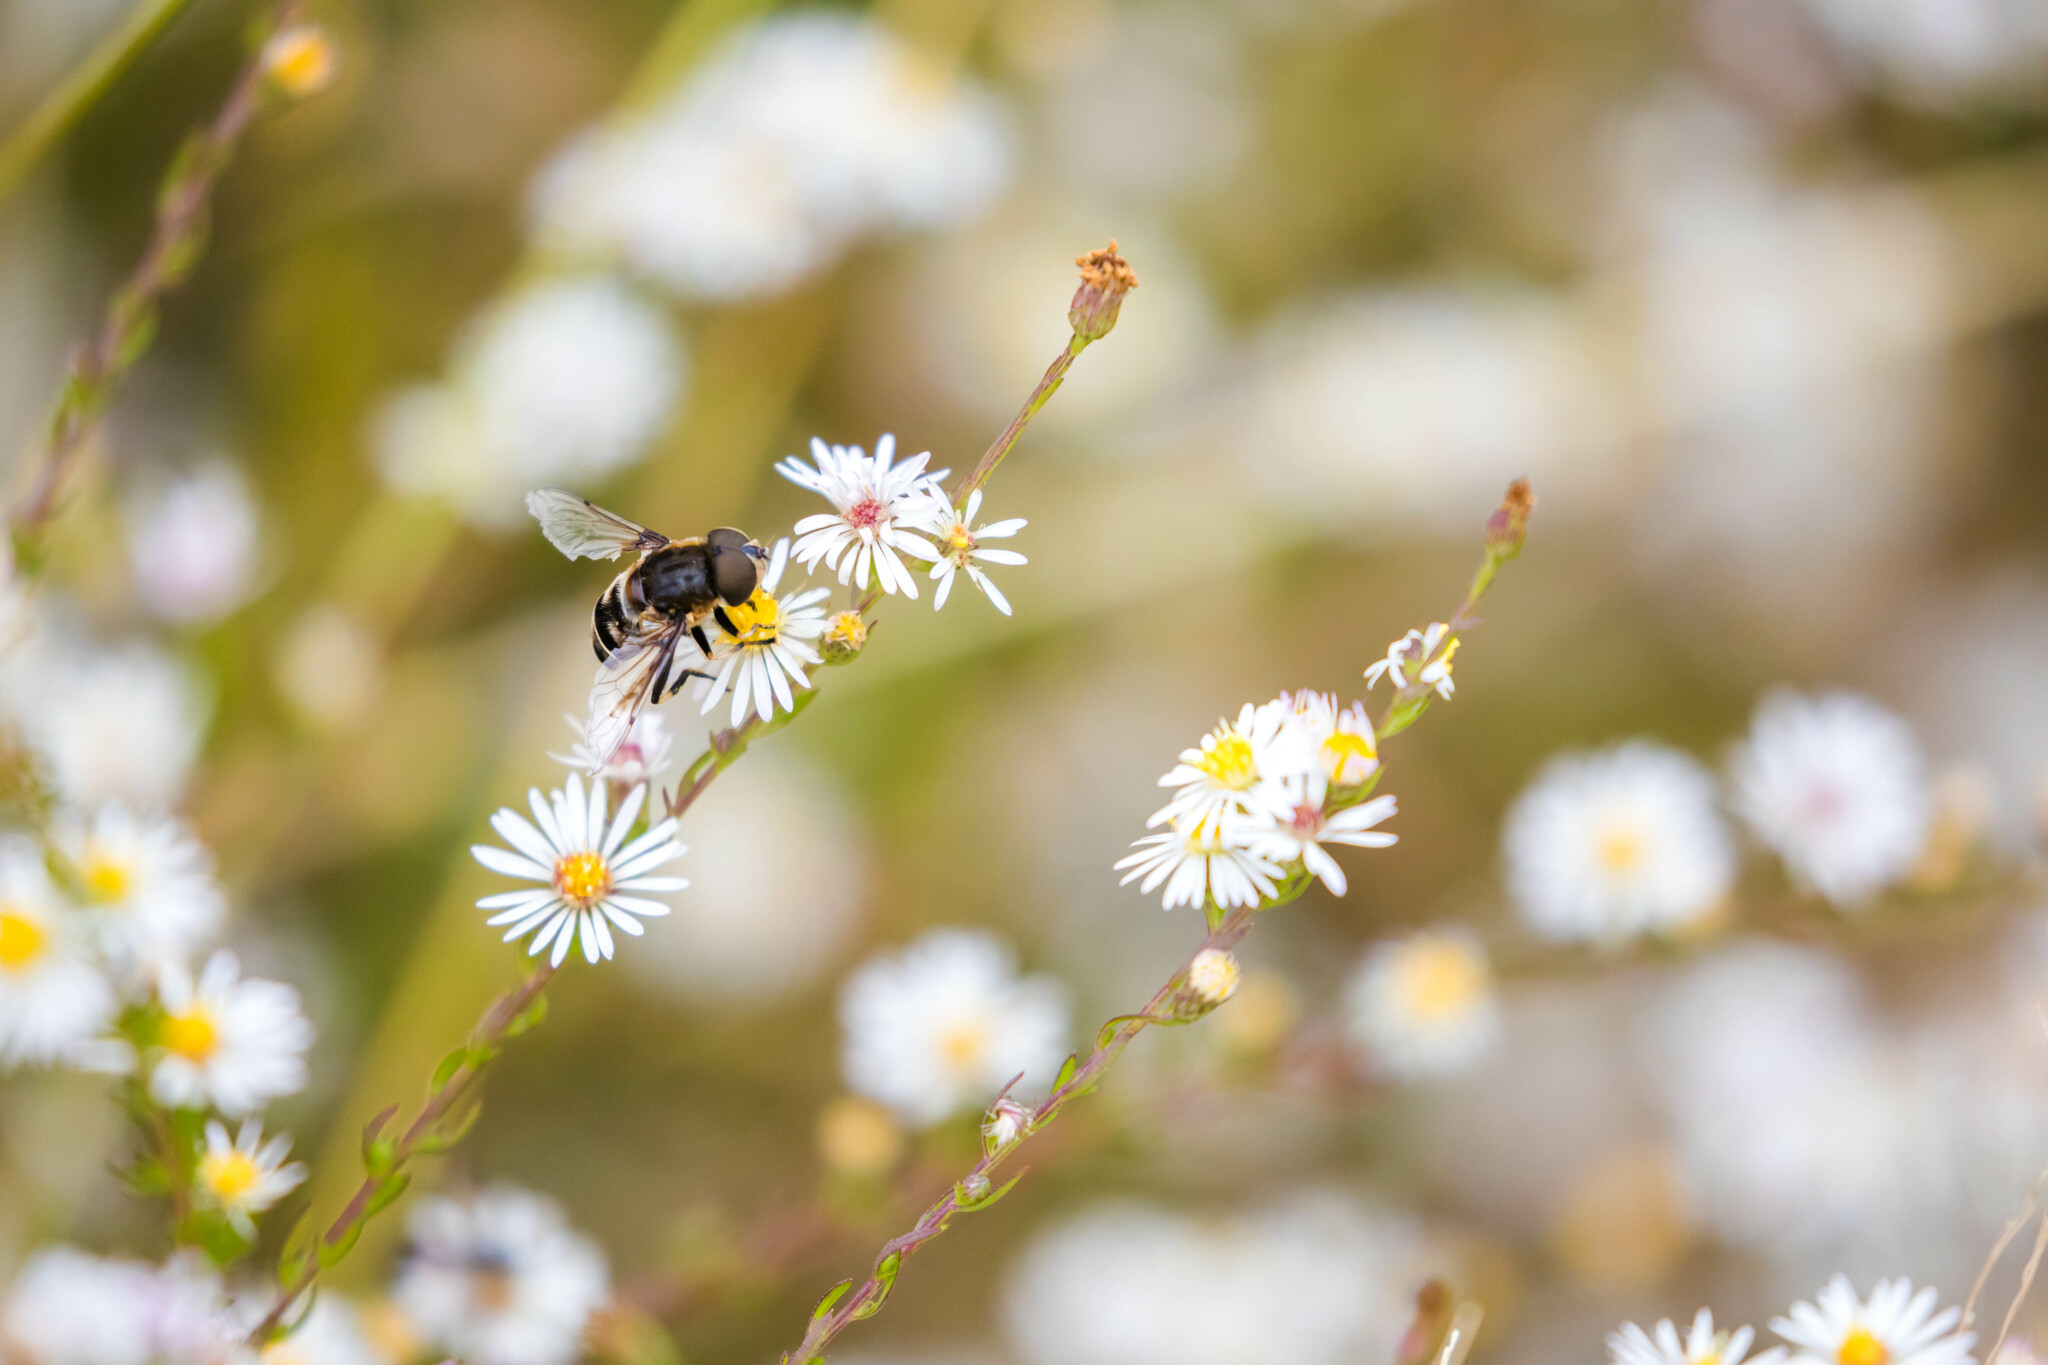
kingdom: Animalia
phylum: Arthropoda
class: Insecta
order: Diptera
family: Syrphidae
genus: Eristalis
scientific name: Eristalis dimidiata
